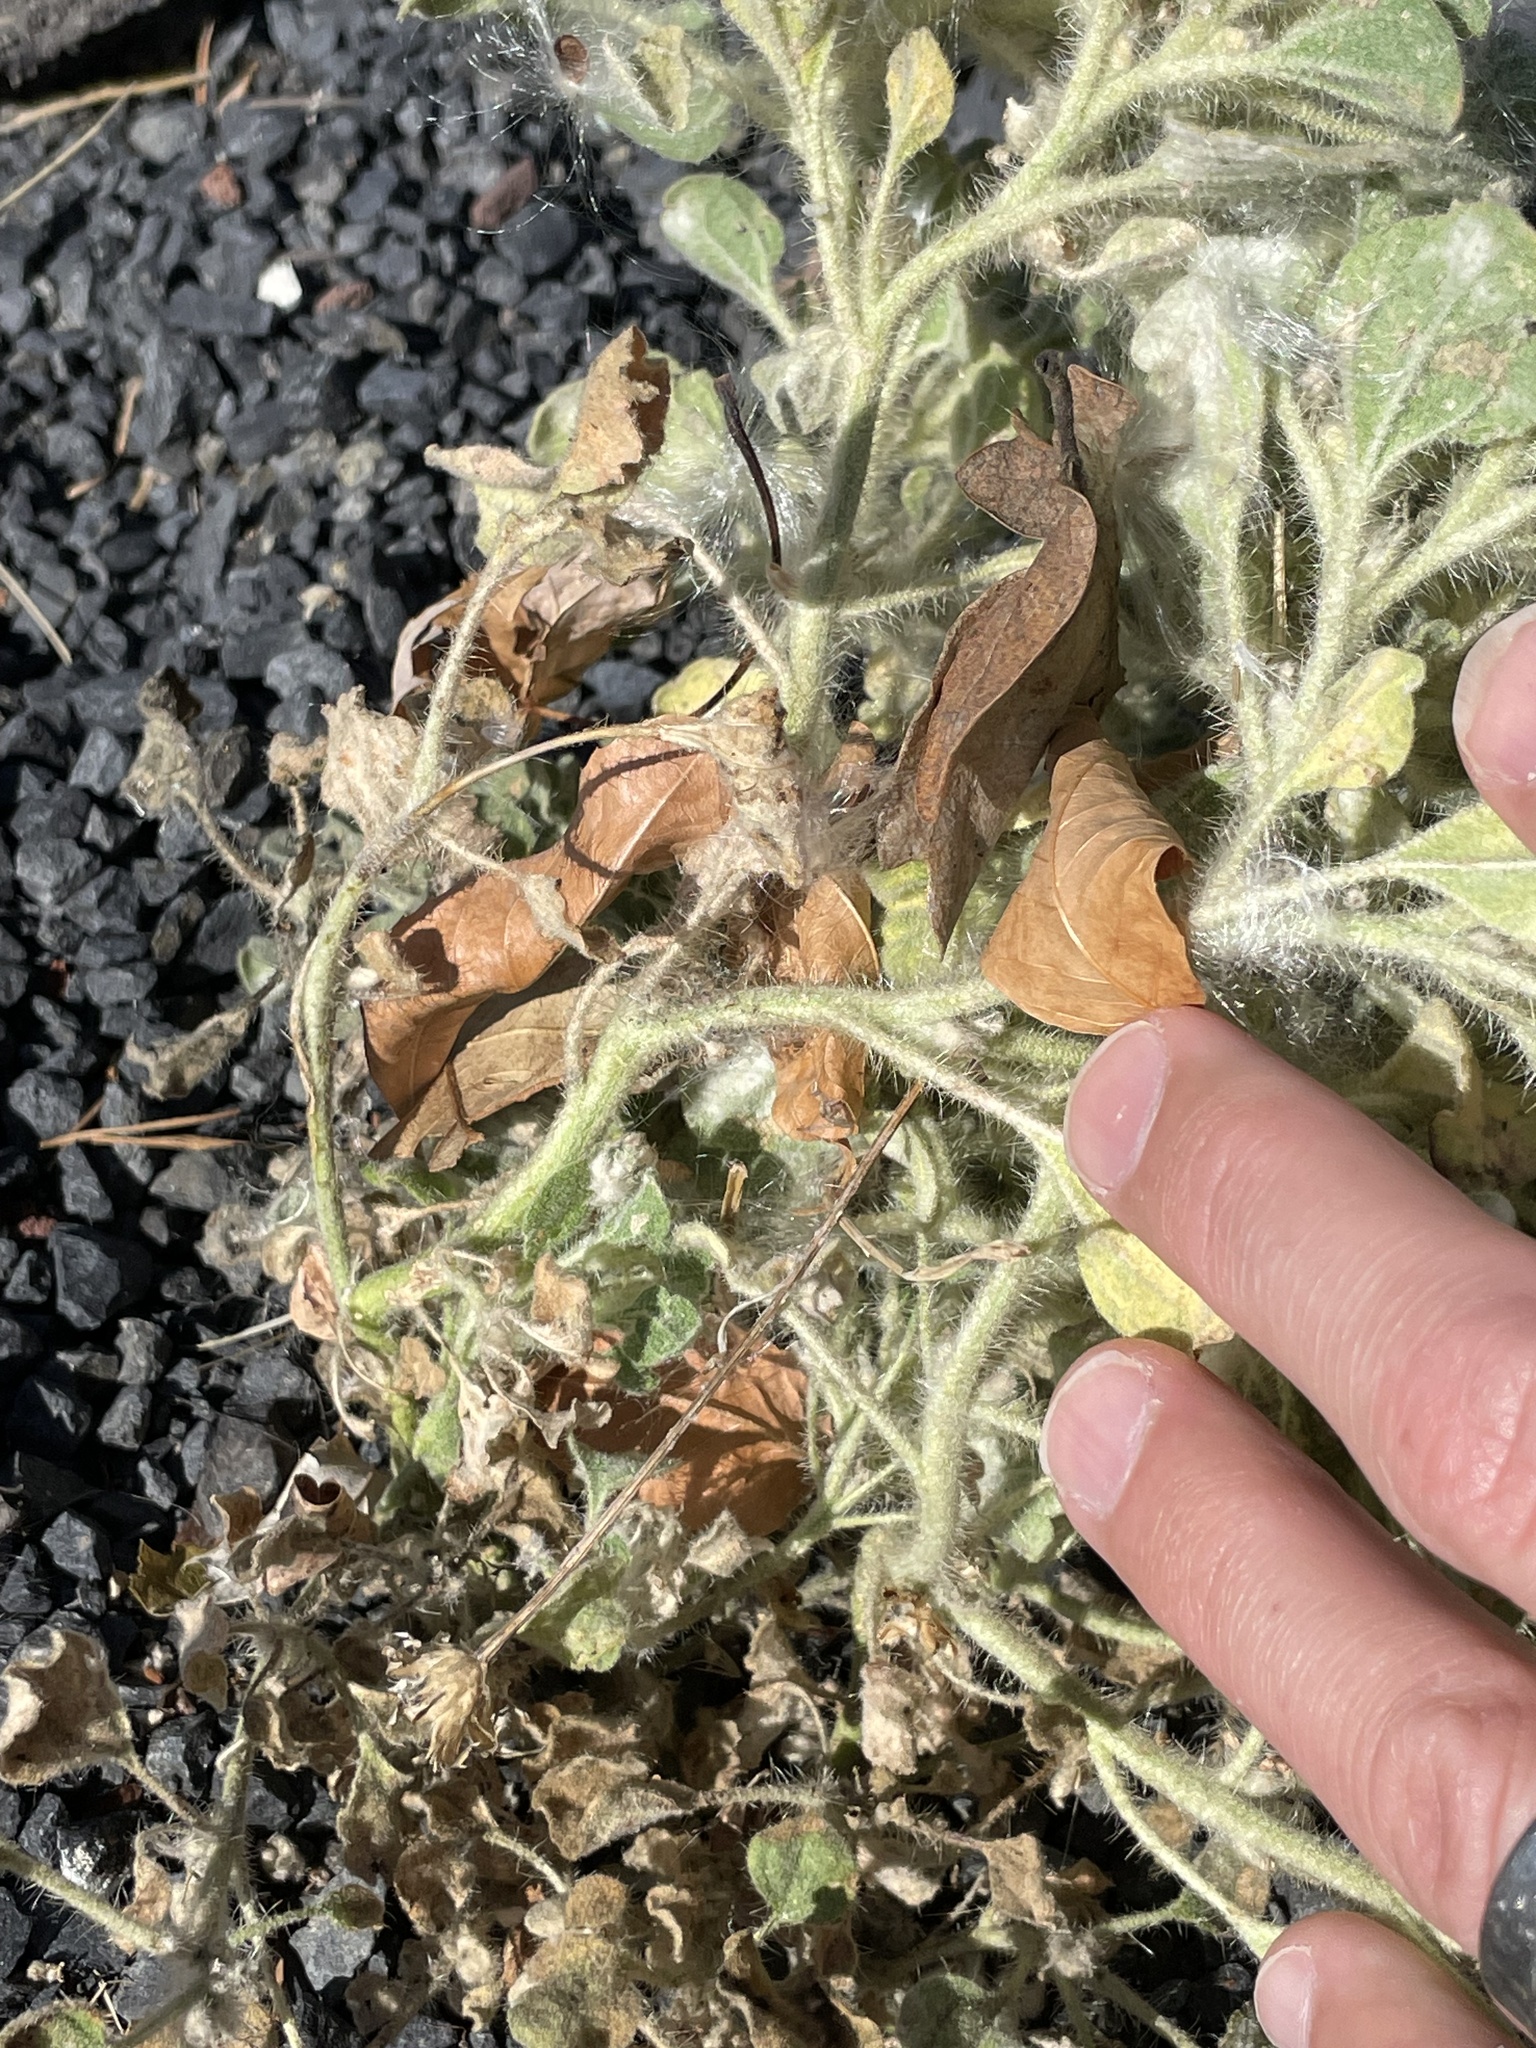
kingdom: Plantae
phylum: Tracheophyta
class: Magnoliopsida
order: Malpighiales
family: Euphorbiaceae
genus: Croton
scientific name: Croton setiger
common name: Dove weed
